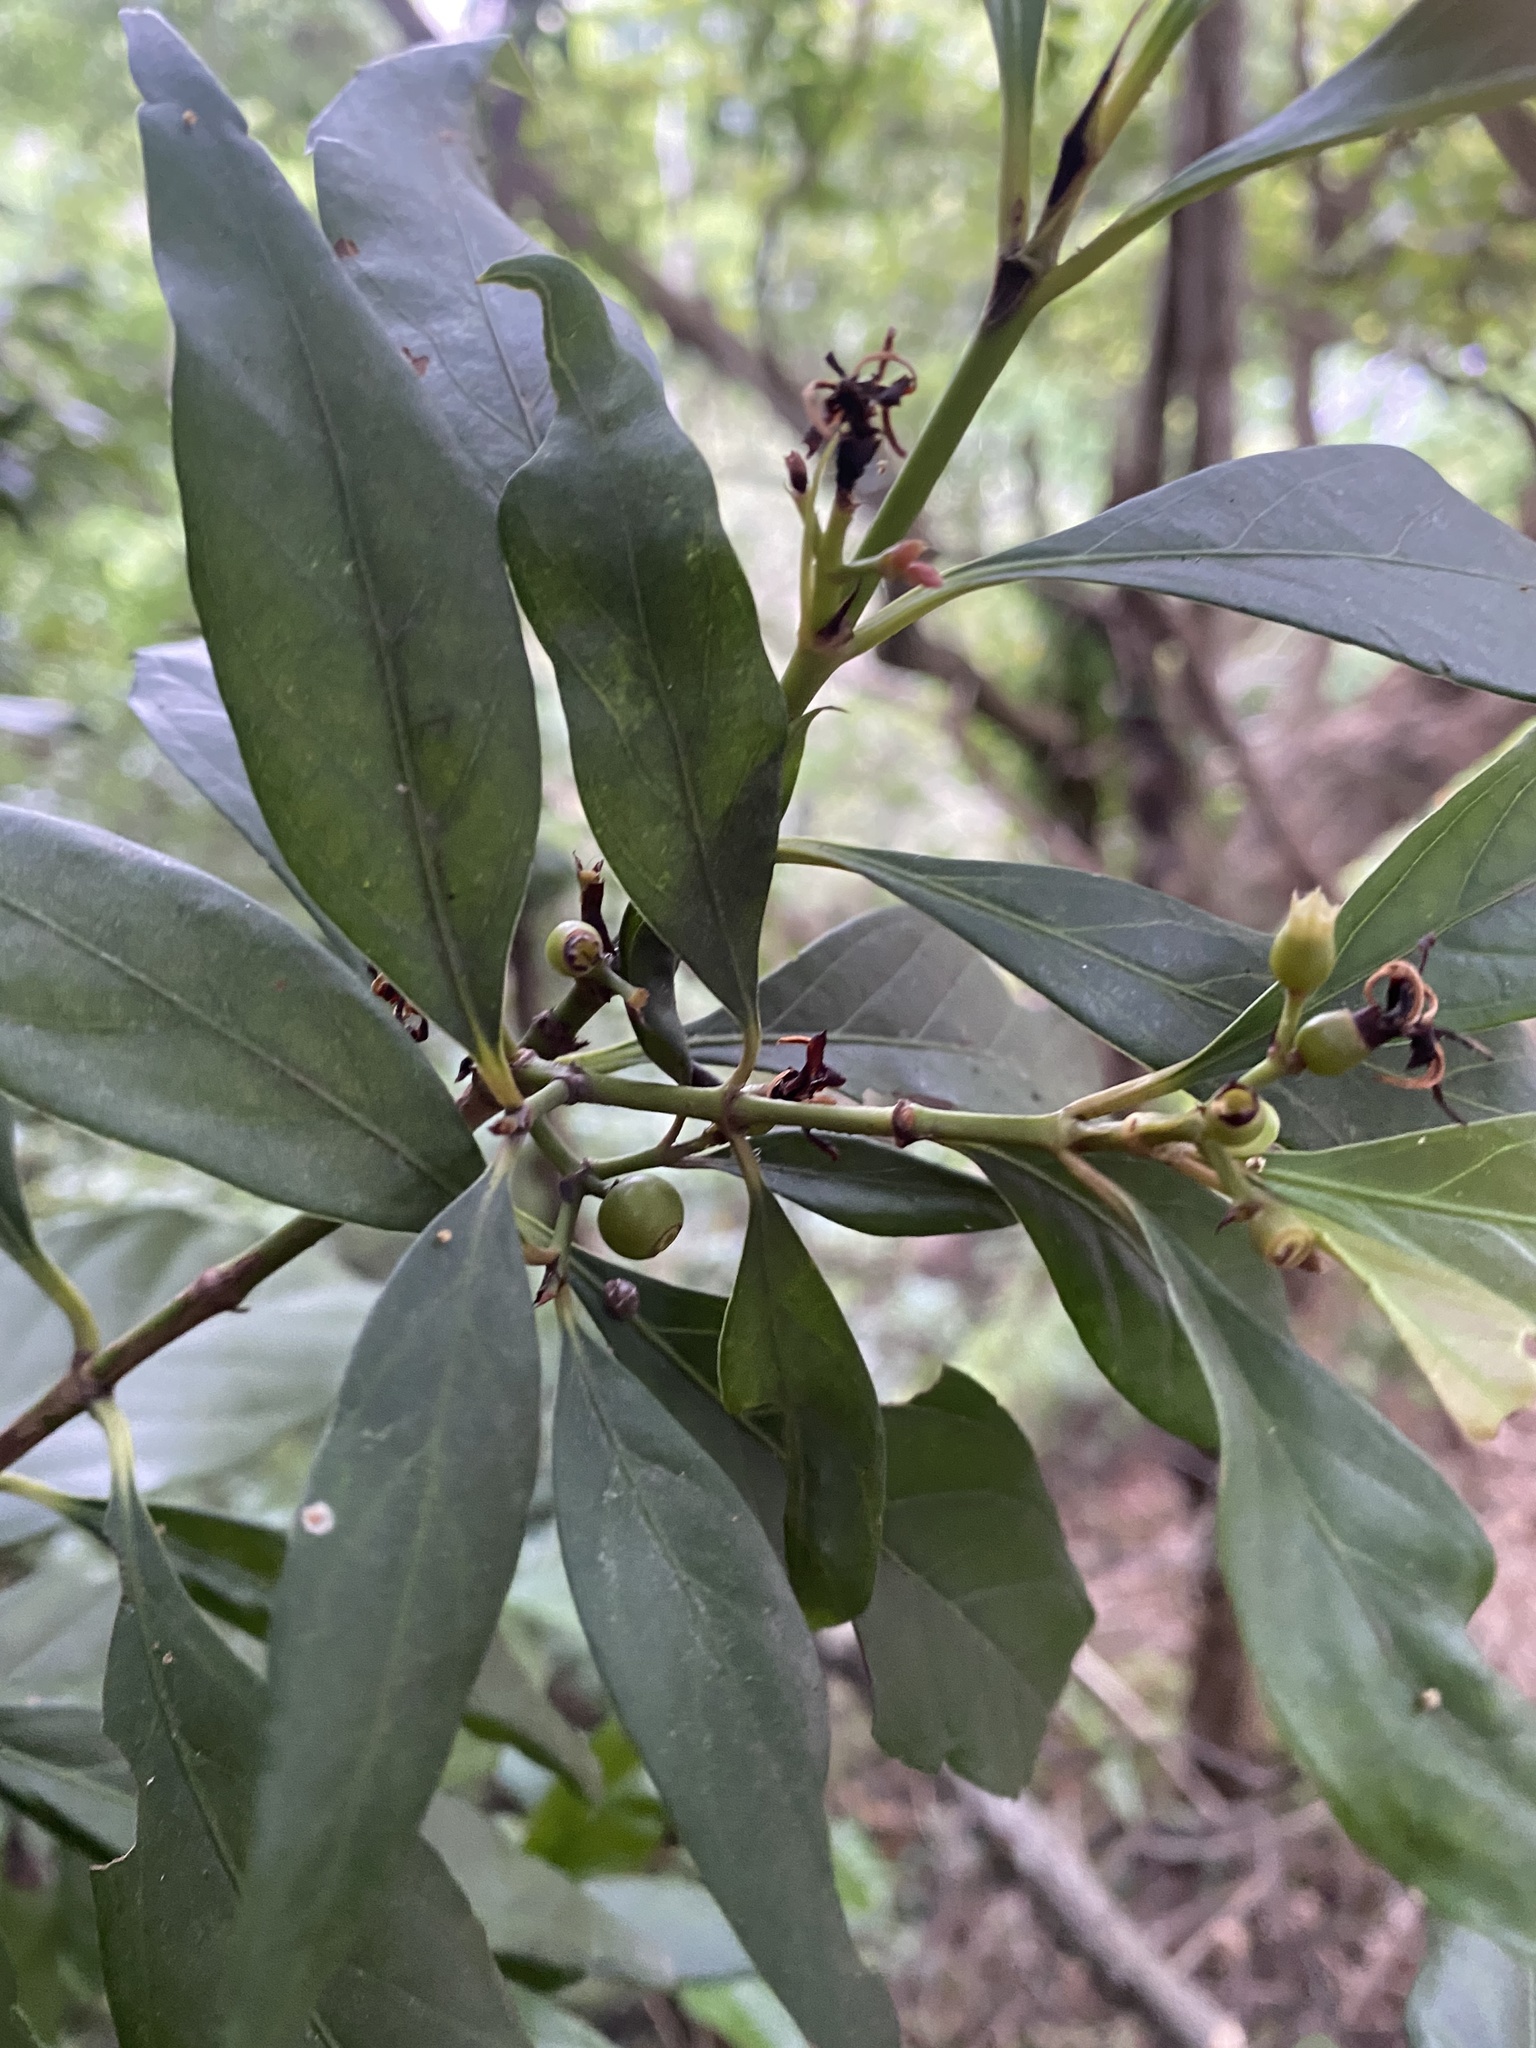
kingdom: Plantae
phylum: Tracheophyta
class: Magnoliopsida
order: Gentianales
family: Rubiaceae
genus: Aidia
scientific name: Aidia cochinchinensis
